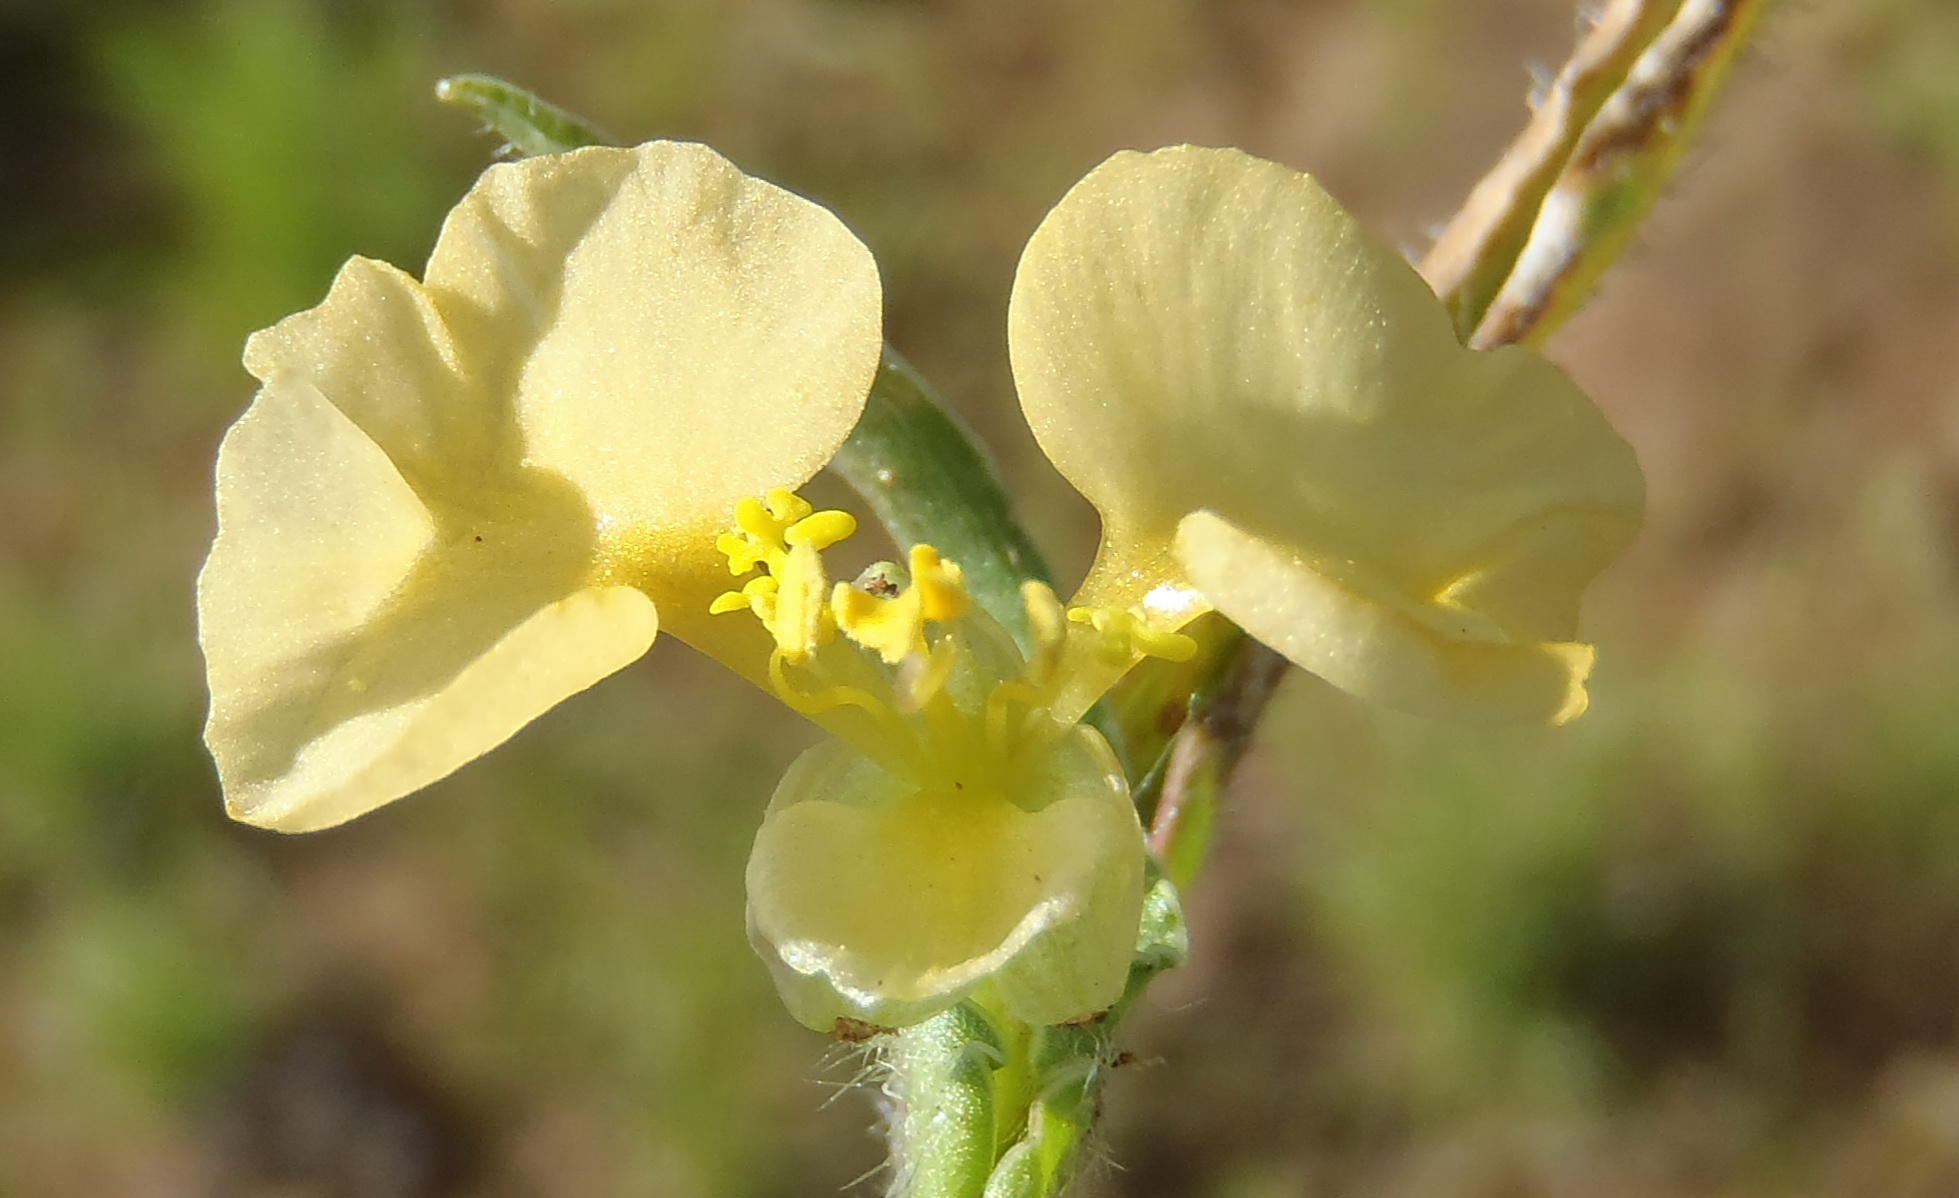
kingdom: Plantae
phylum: Tracheophyta
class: Liliopsida
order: Commelinales
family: Commelinaceae
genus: Commelina
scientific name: Commelina africana
